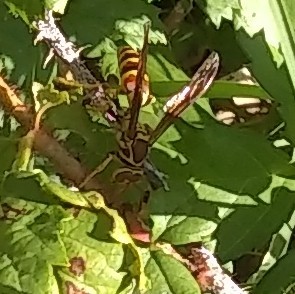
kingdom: Animalia
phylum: Arthropoda
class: Insecta
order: Hymenoptera
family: Eumenidae
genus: Polistes
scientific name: Polistes exclamans
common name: Paper wasp
